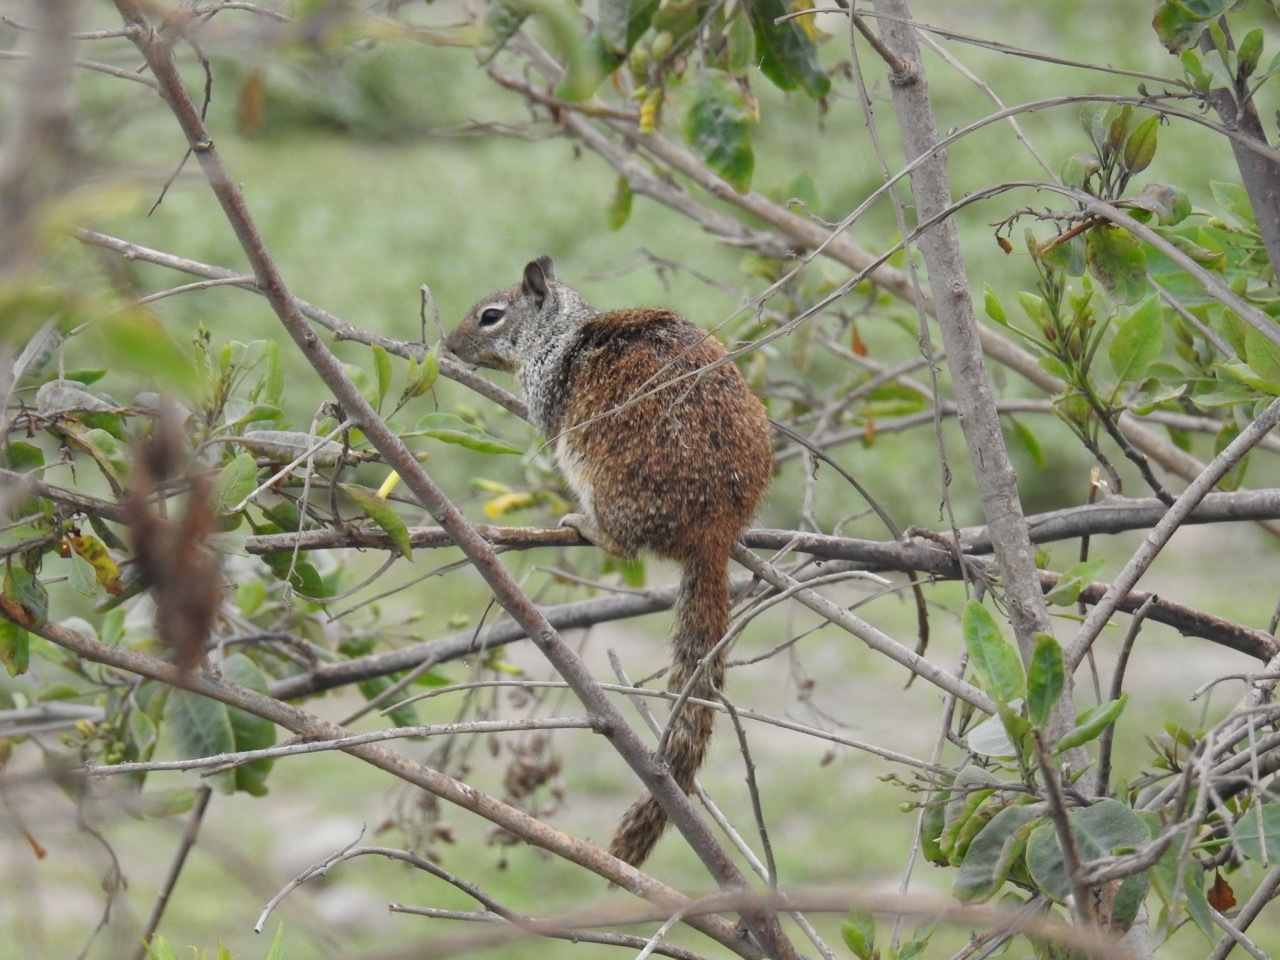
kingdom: Animalia
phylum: Chordata
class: Mammalia
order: Rodentia
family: Sciuridae
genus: Otospermophilus
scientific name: Otospermophilus beecheyi
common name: California ground squirrel
